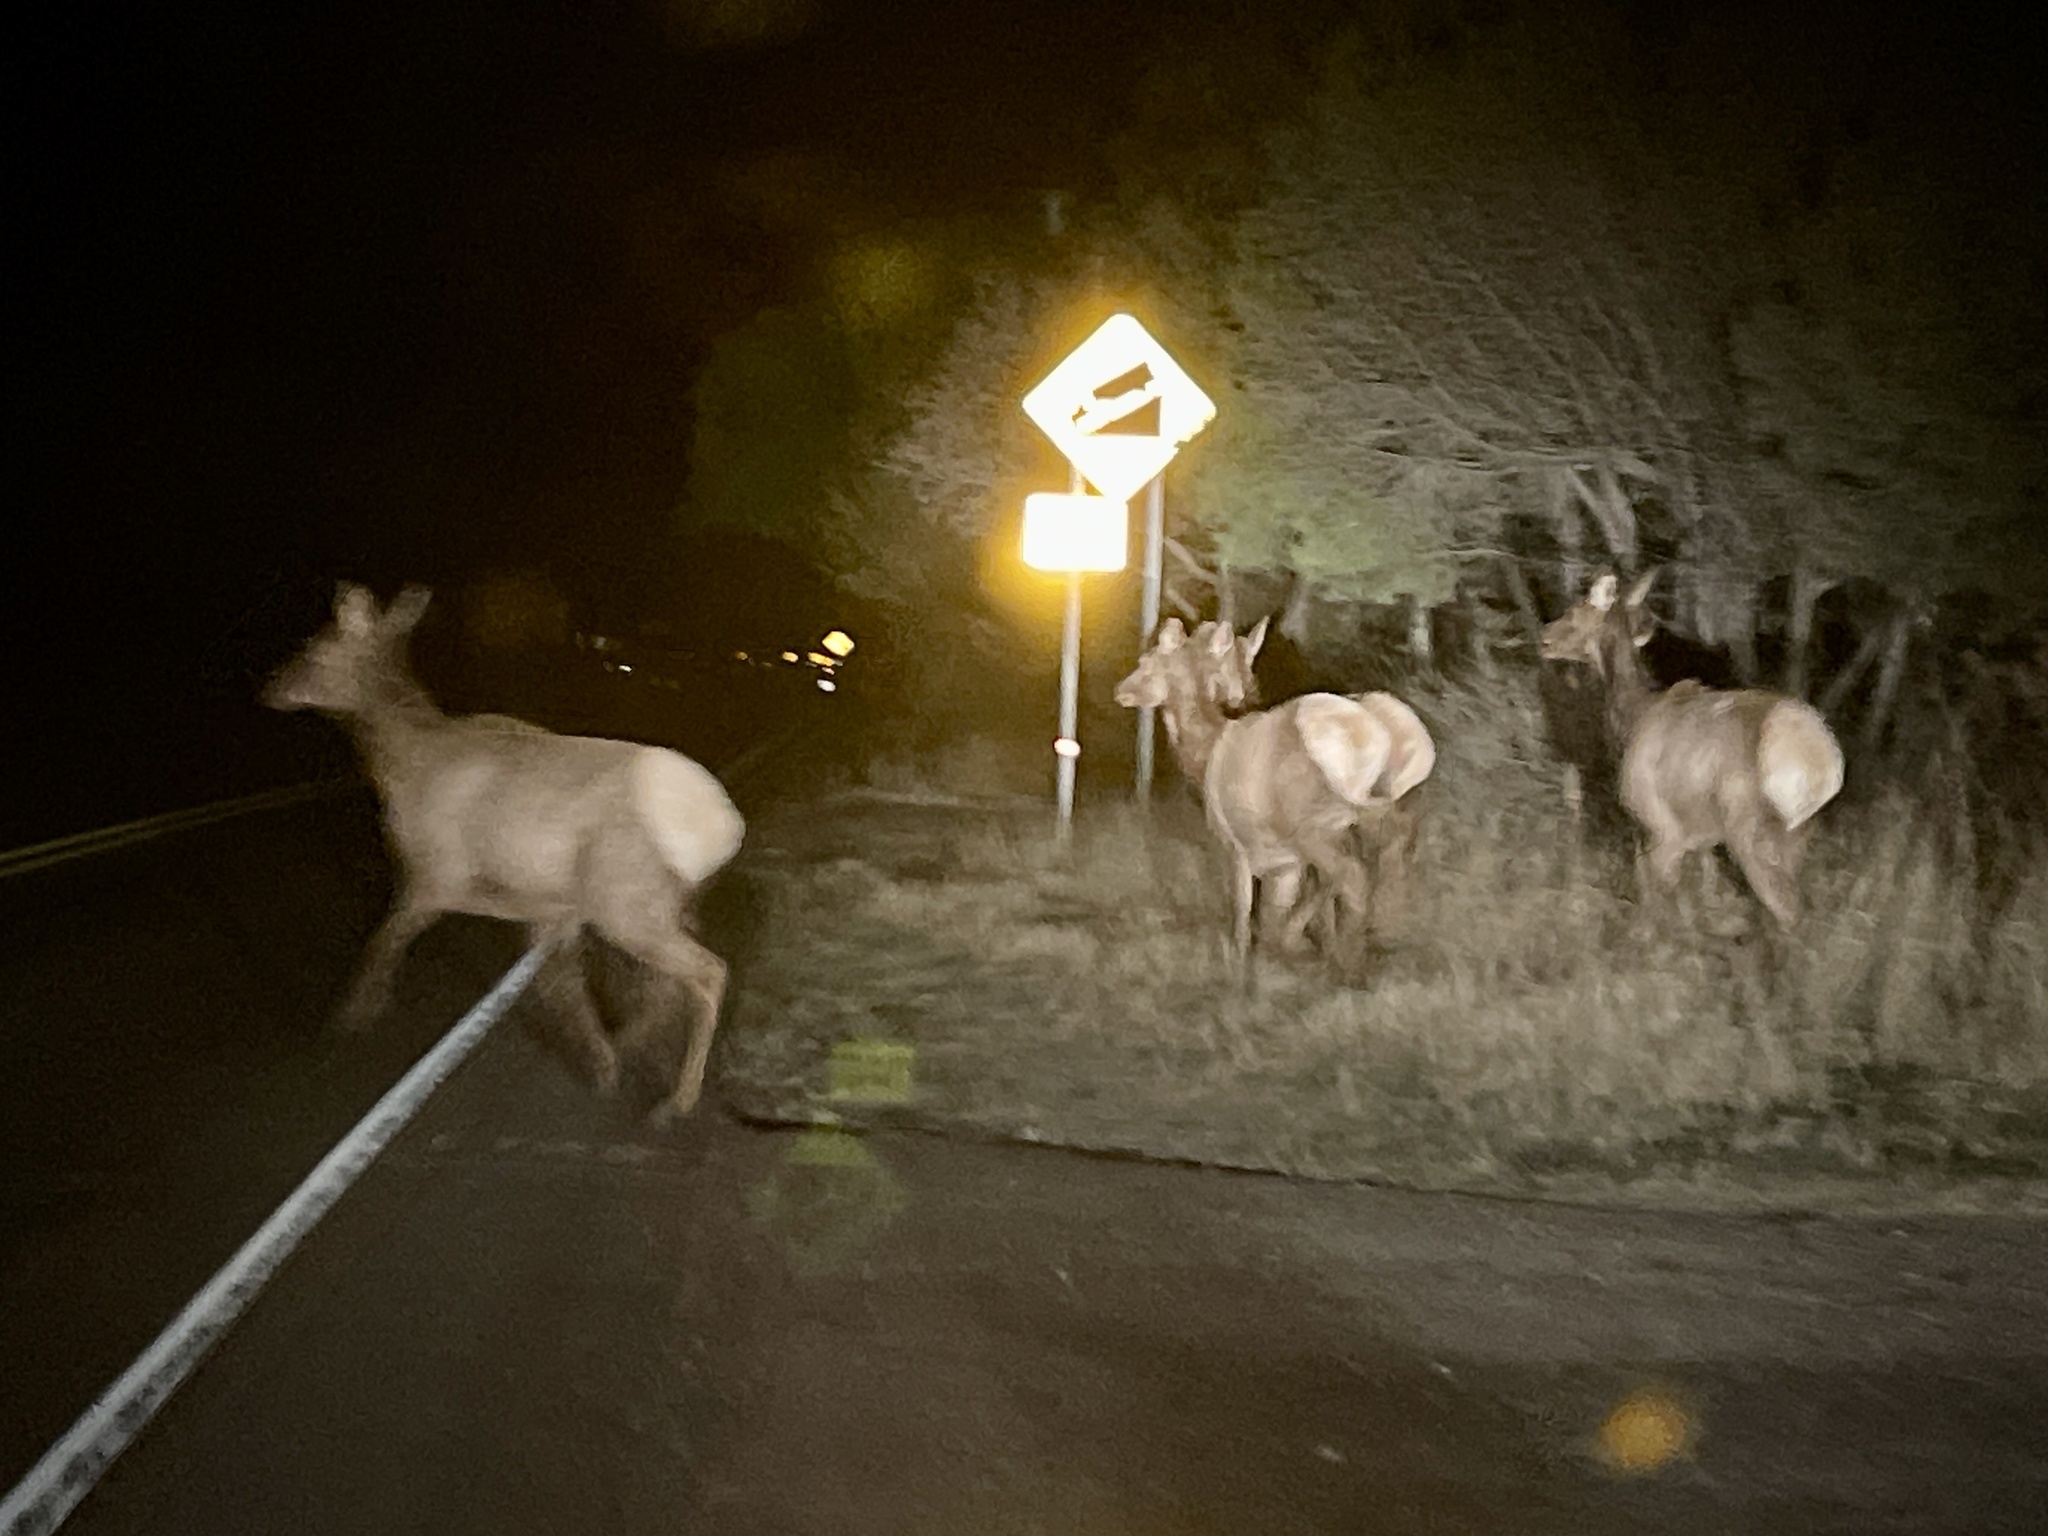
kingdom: Animalia
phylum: Chordata
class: Mammalia
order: Artiodactyla
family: Cervidae
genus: Cervus
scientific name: Cervus elaphus
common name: Red deer
